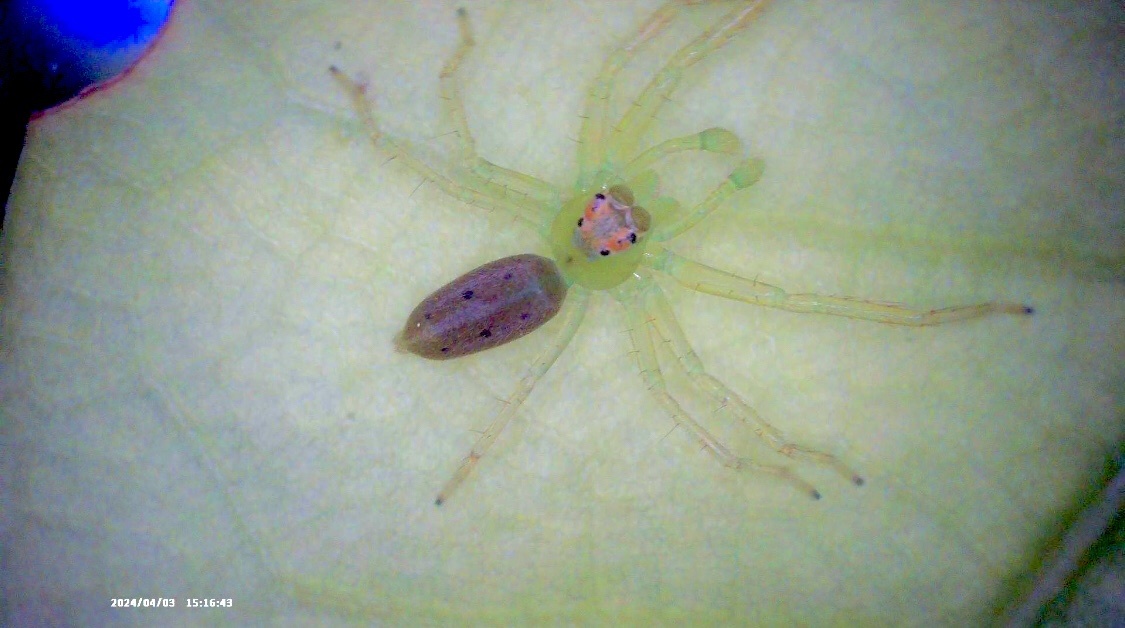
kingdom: Animalia
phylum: Arthropoda
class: Arachnida
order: Araneae
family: Salticidae
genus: Lyssomanes
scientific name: Lyssomanes viridis
